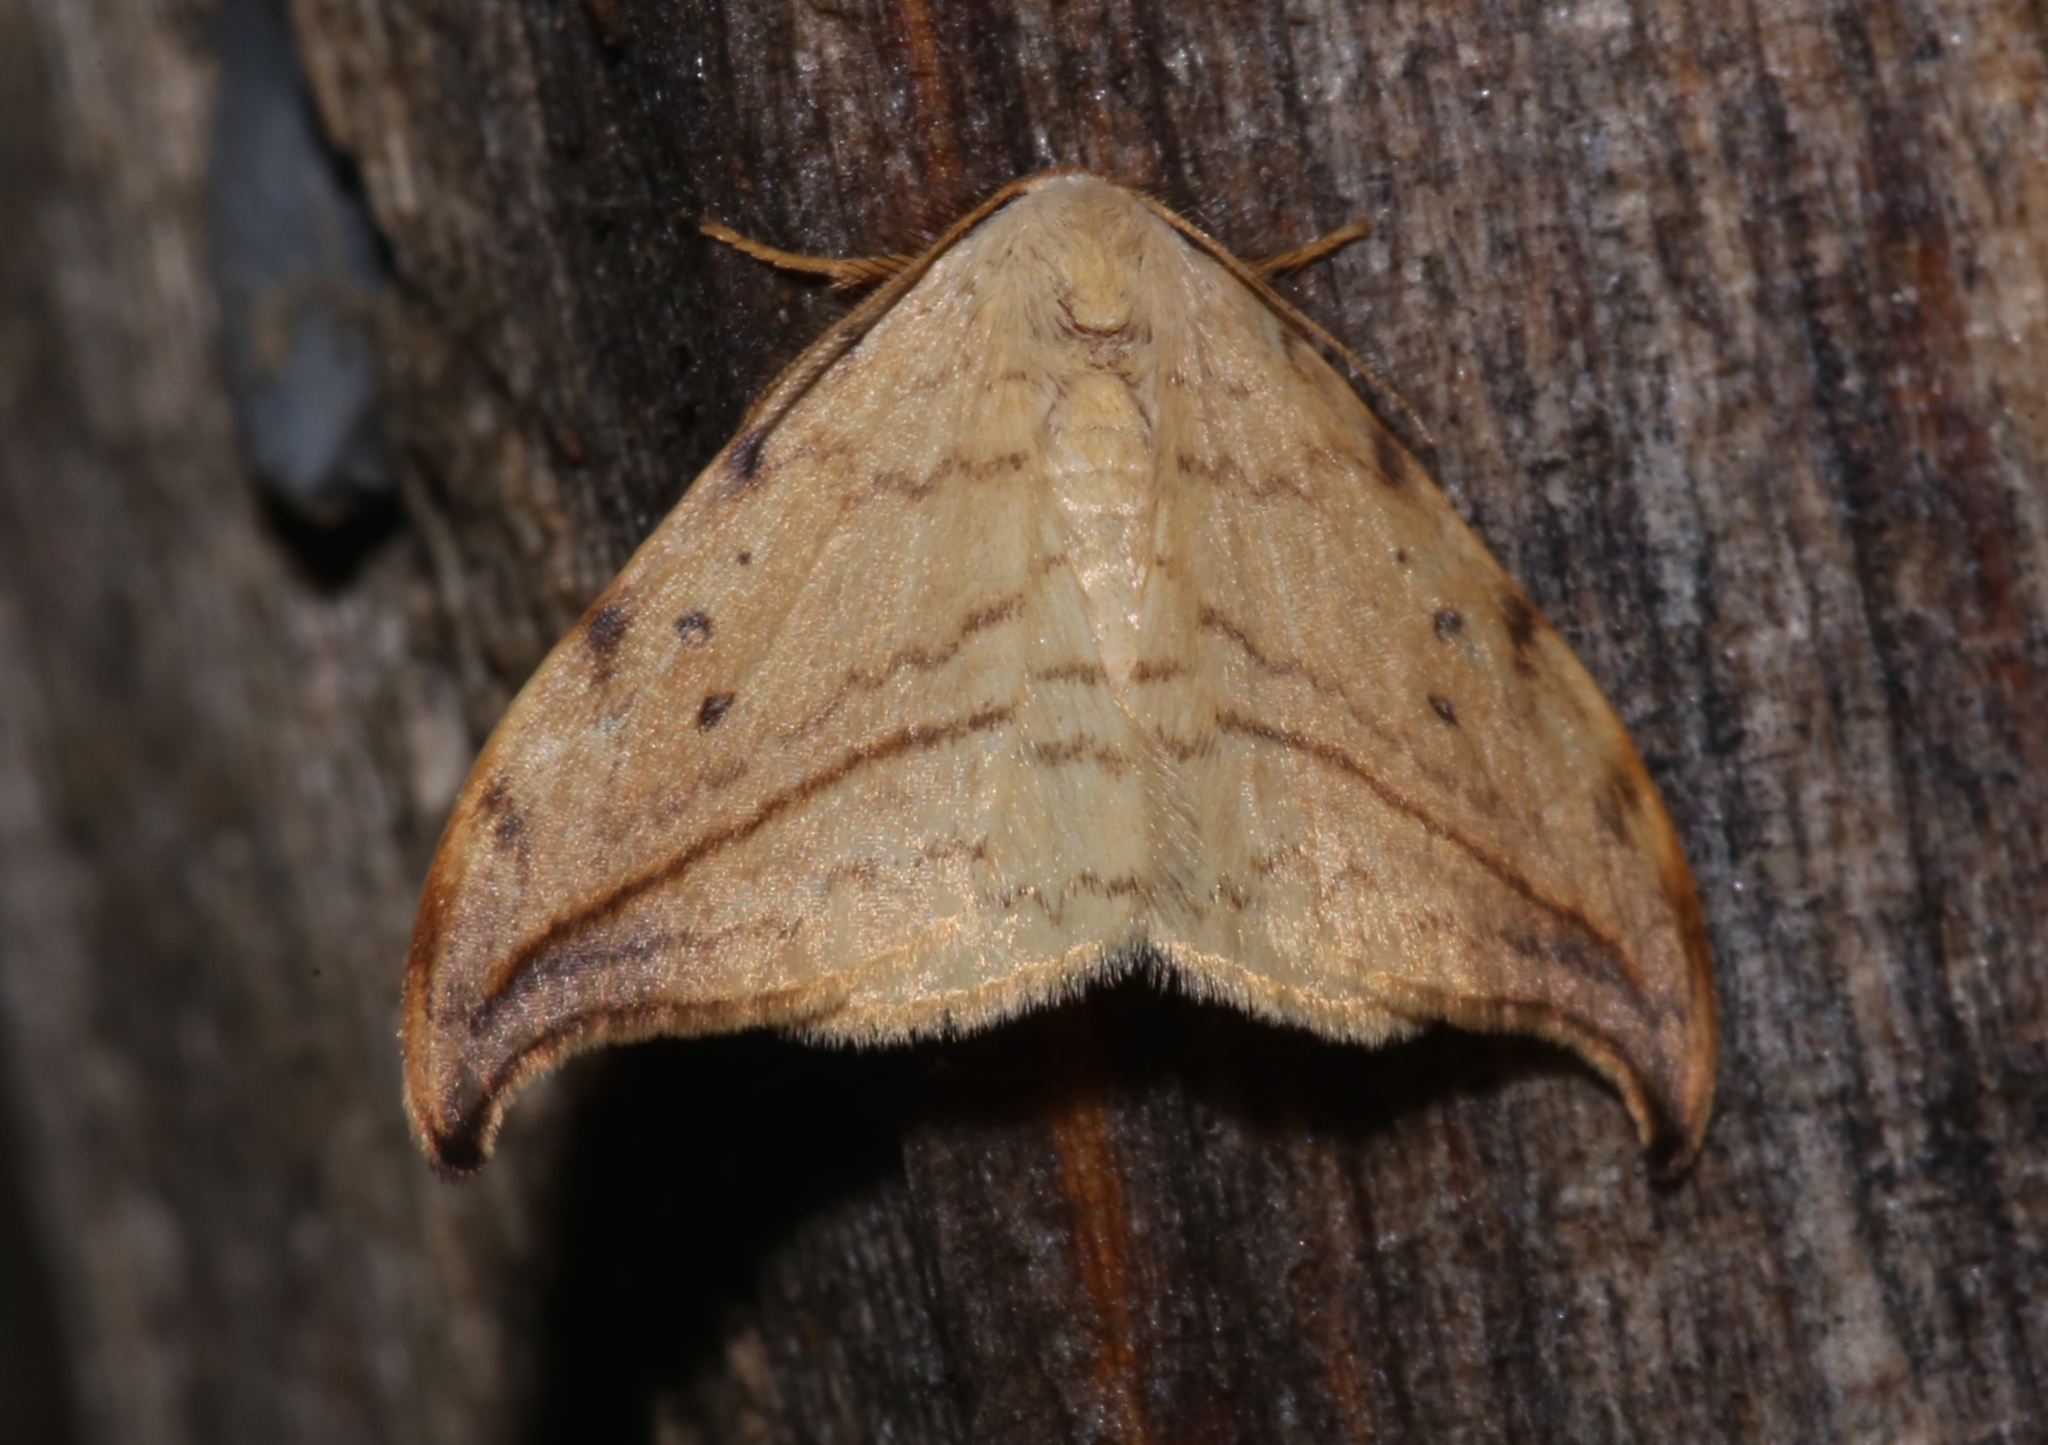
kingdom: Animalia
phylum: Arthropoda
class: Insecta
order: Lepidoptera
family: Drepanidae
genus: Drepana
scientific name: Drepana arcuata
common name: Arched hooktip moth
